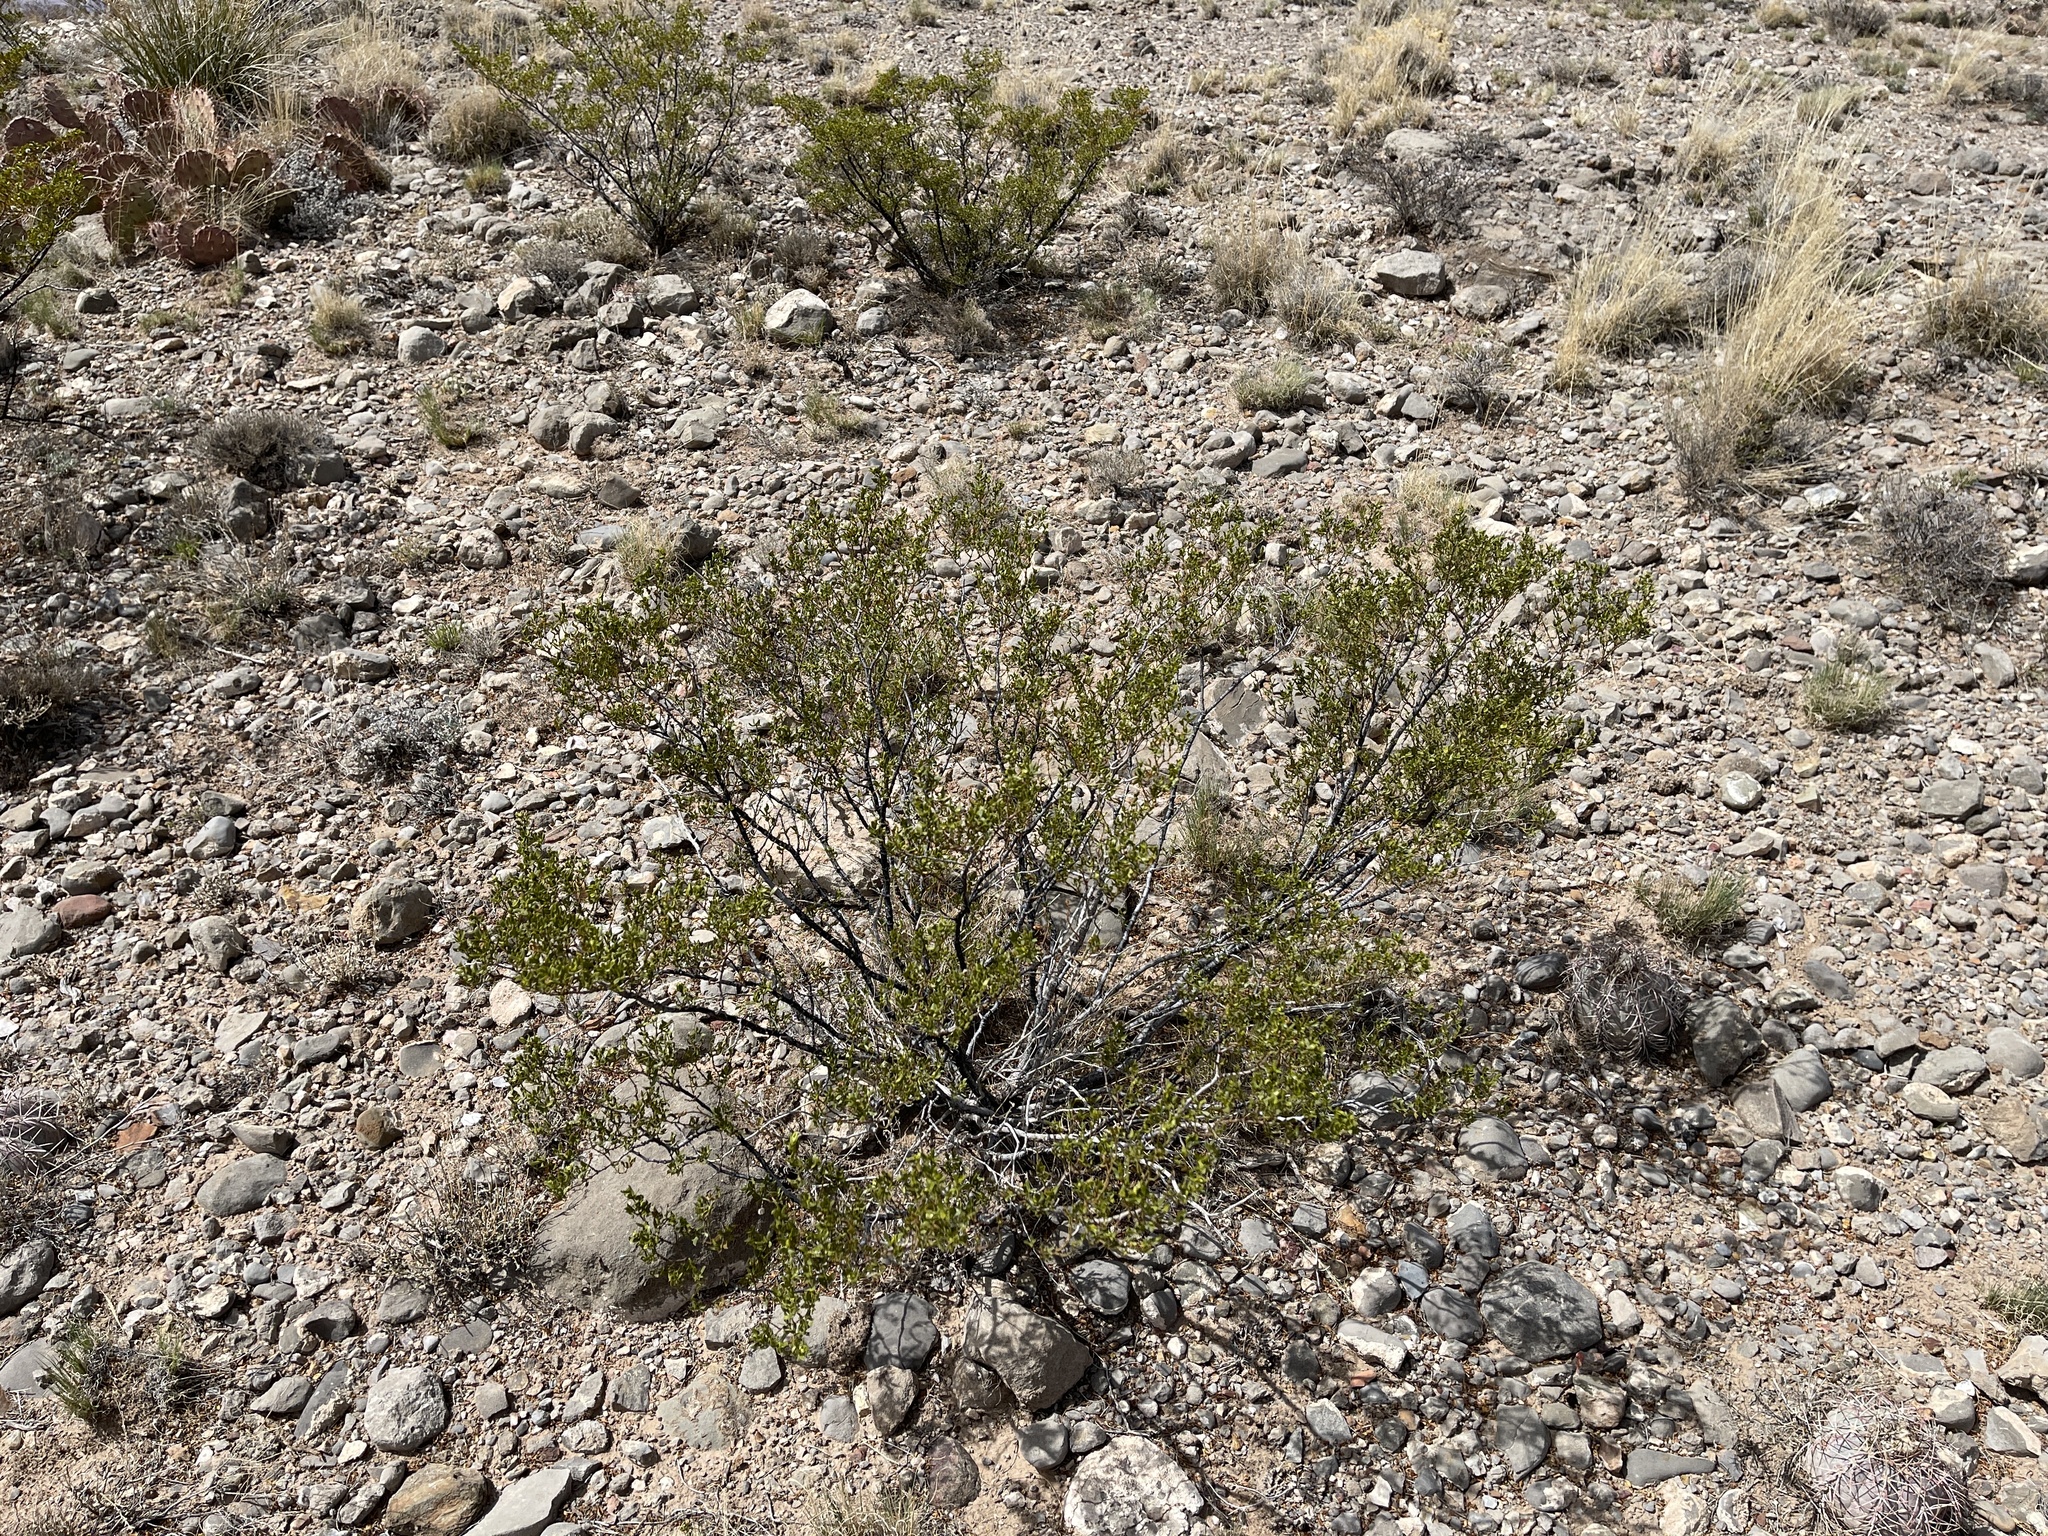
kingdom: Plantae
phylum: Tracheophyta
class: Magnoliopsida
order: Zygophyllales
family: Zygophyllaceae
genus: Larrea
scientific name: Larrea tridentata
